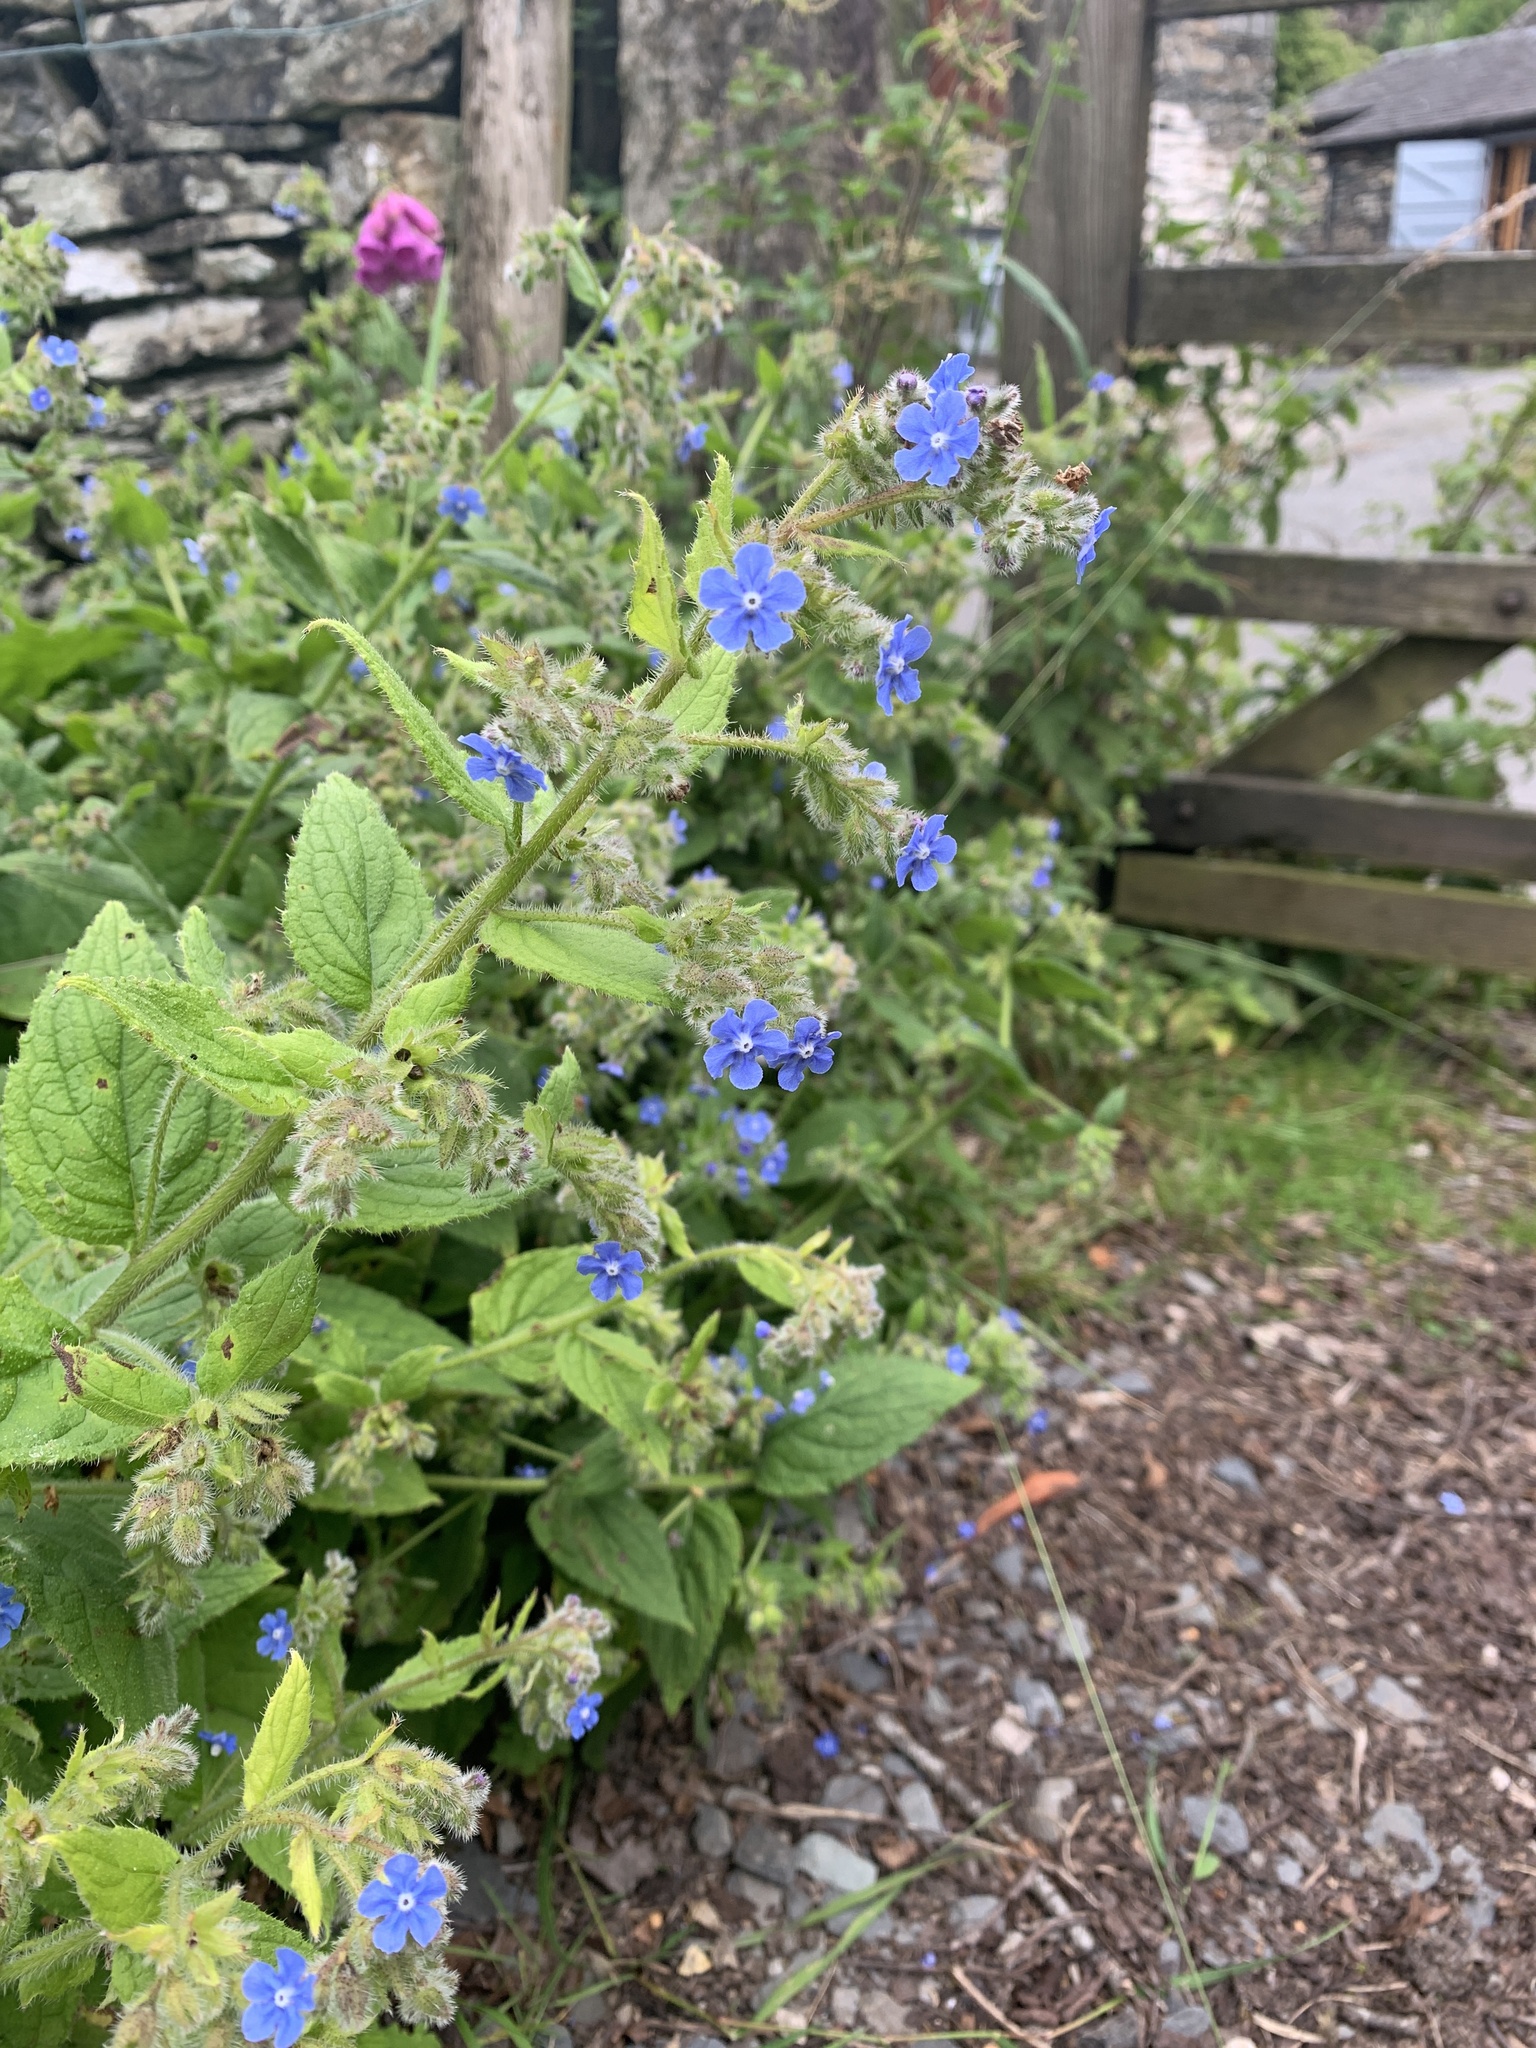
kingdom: Plantae
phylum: Tracheophyta
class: Magnoliopsida
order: Boraginales
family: Boraginaceae
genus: Pentaglottis
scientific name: Pentaglottis sempervirens
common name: Green alkanet
